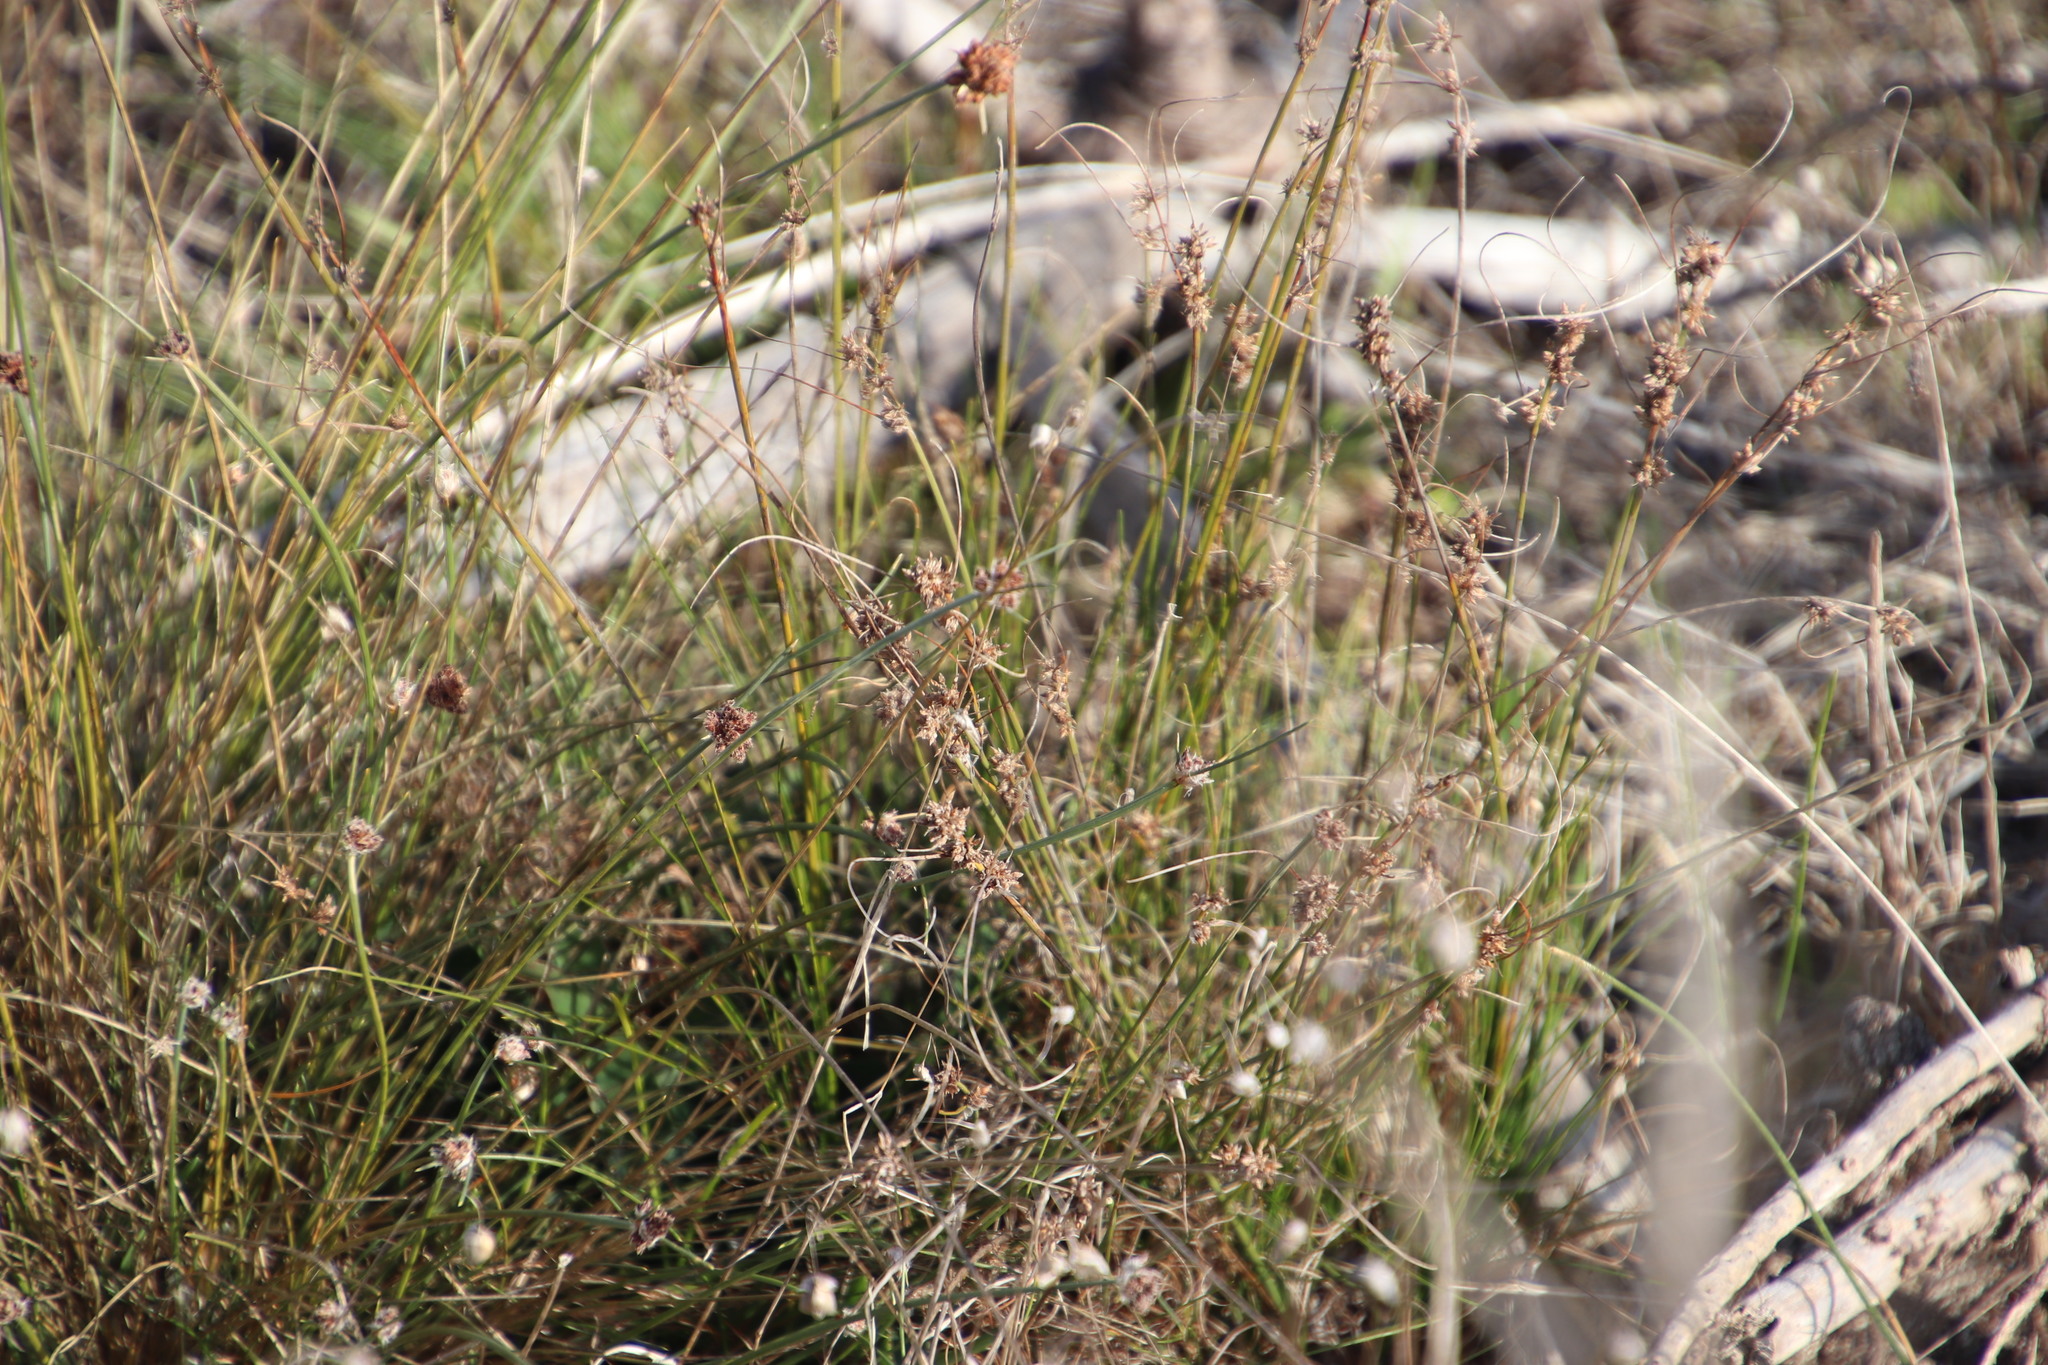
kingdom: Plantae
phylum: Tracheophyta
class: Liliopsida
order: Poales
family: Cyperaceae
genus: Ficinia
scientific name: Ficinia bulbosa
